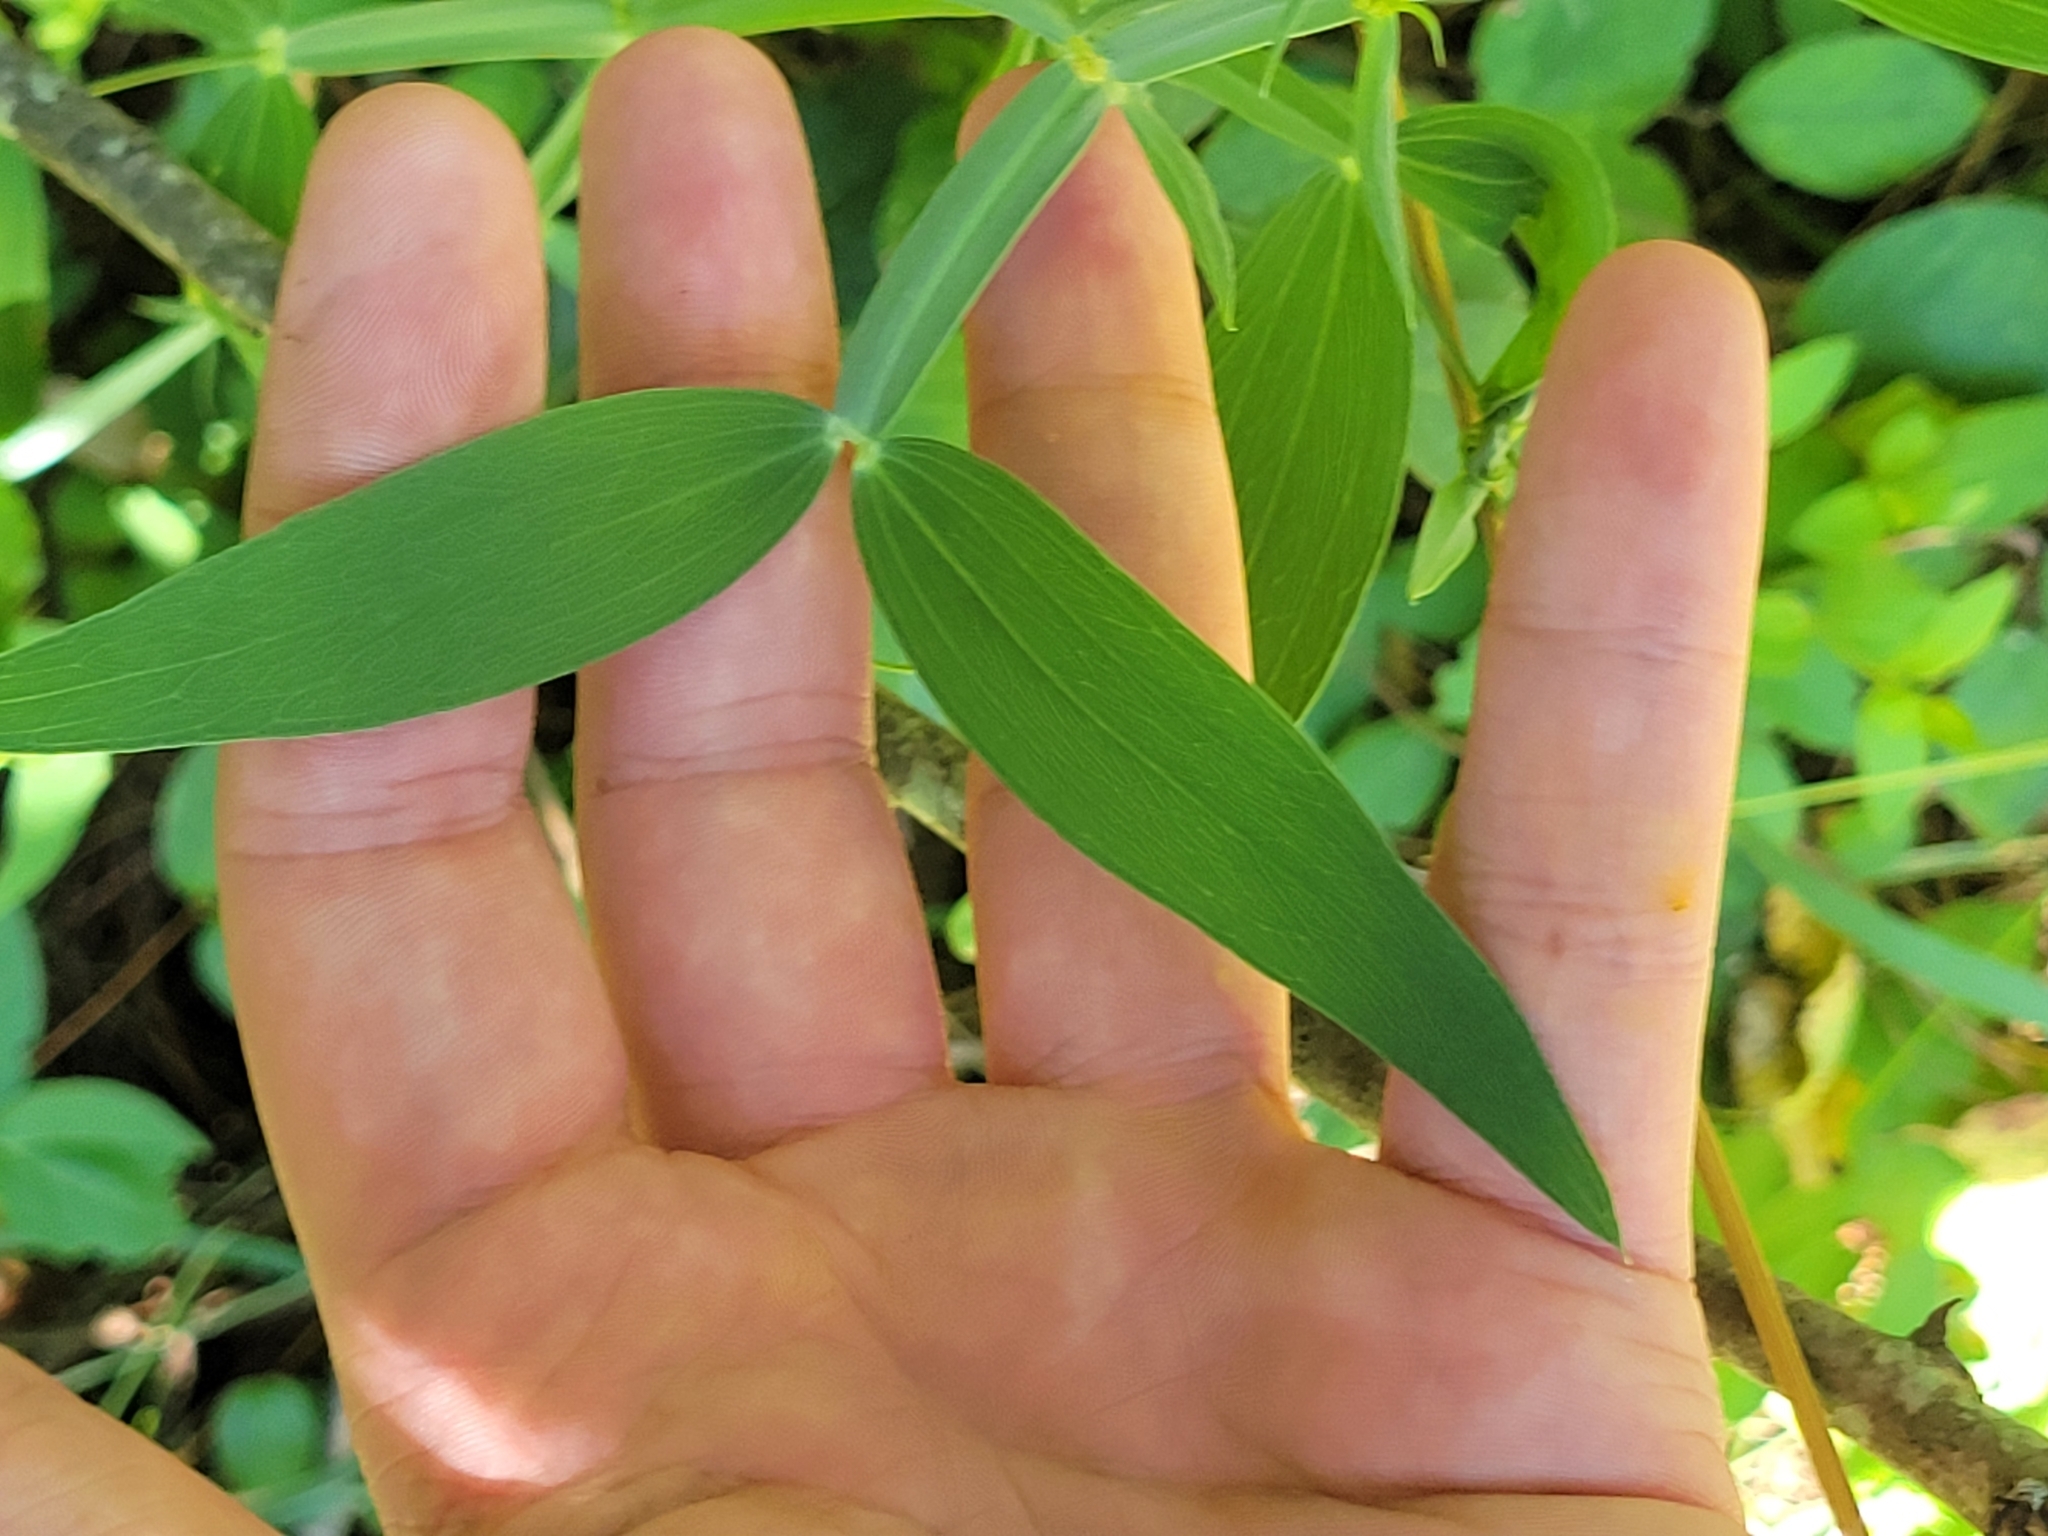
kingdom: Plantae
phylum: Tracheophyta
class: Magnoliopsida
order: Fabales
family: Fabaceae
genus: Lathyrus
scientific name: Lathyrus latifolius
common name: Perennial pea
